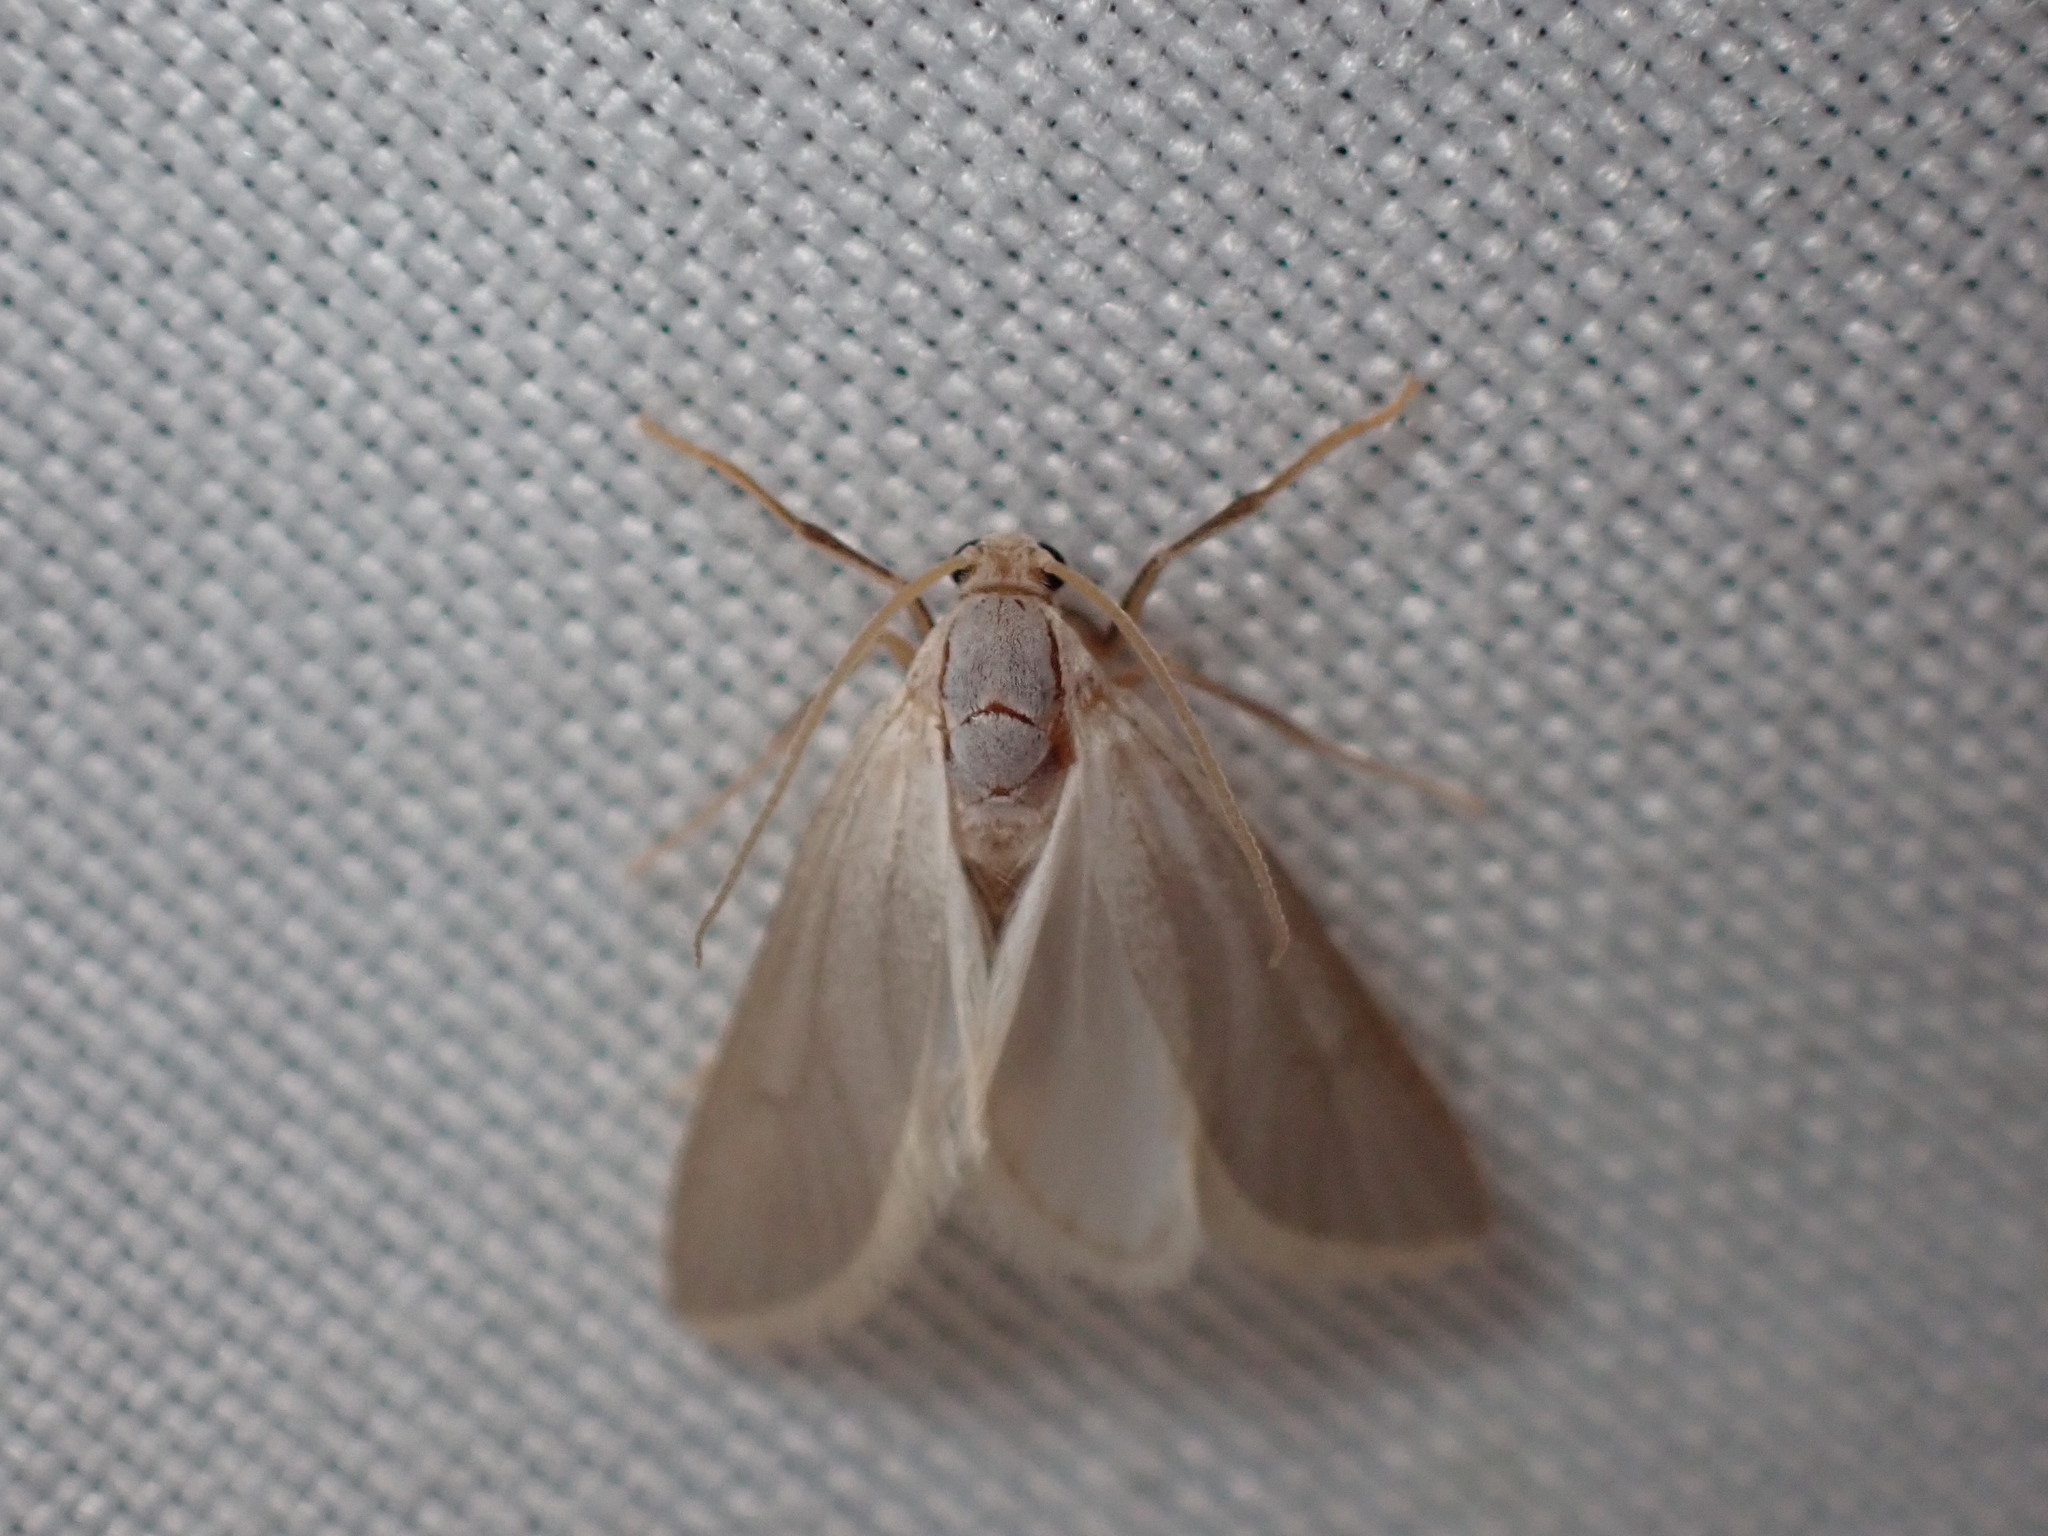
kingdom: Animalia
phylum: Arthropoda
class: Insecta
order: Lepidoptera
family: Crambidae
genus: Acentria
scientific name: Acentria ephemerella
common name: European water moth
